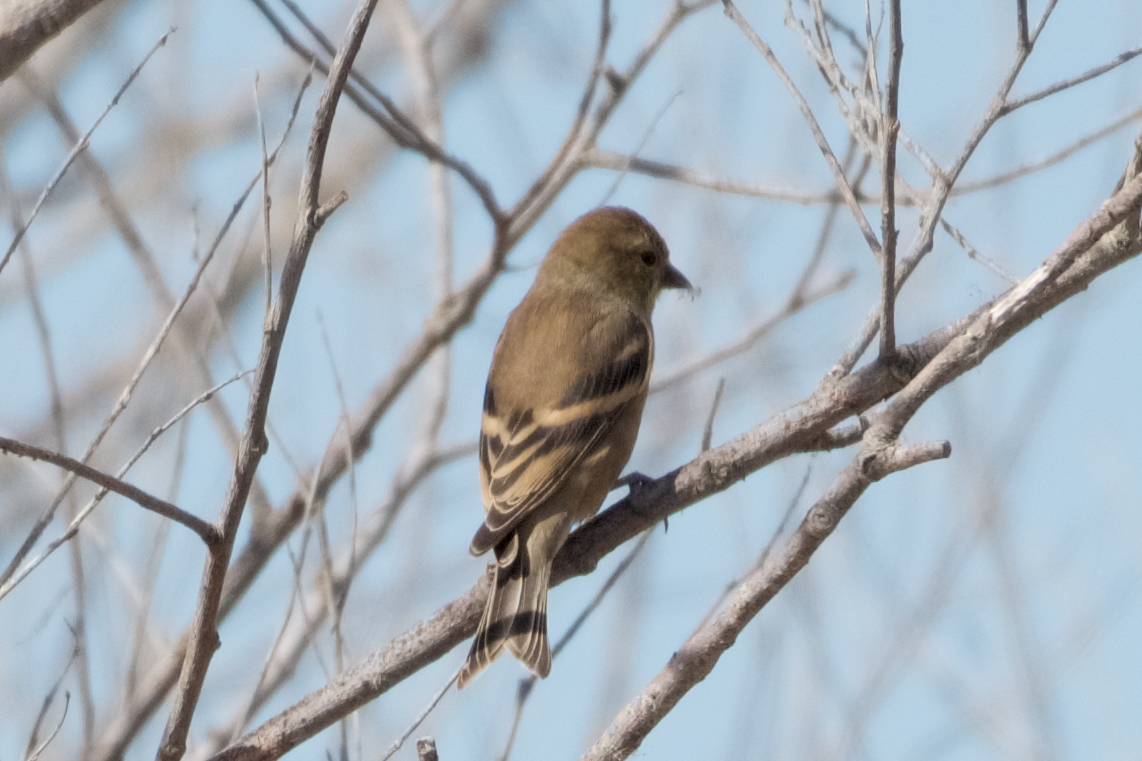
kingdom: Animalia
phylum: Chordata
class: Aves
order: Passeriformes
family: Fringillidae
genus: Spinus
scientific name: Spinus tristis
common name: American goldfinch
